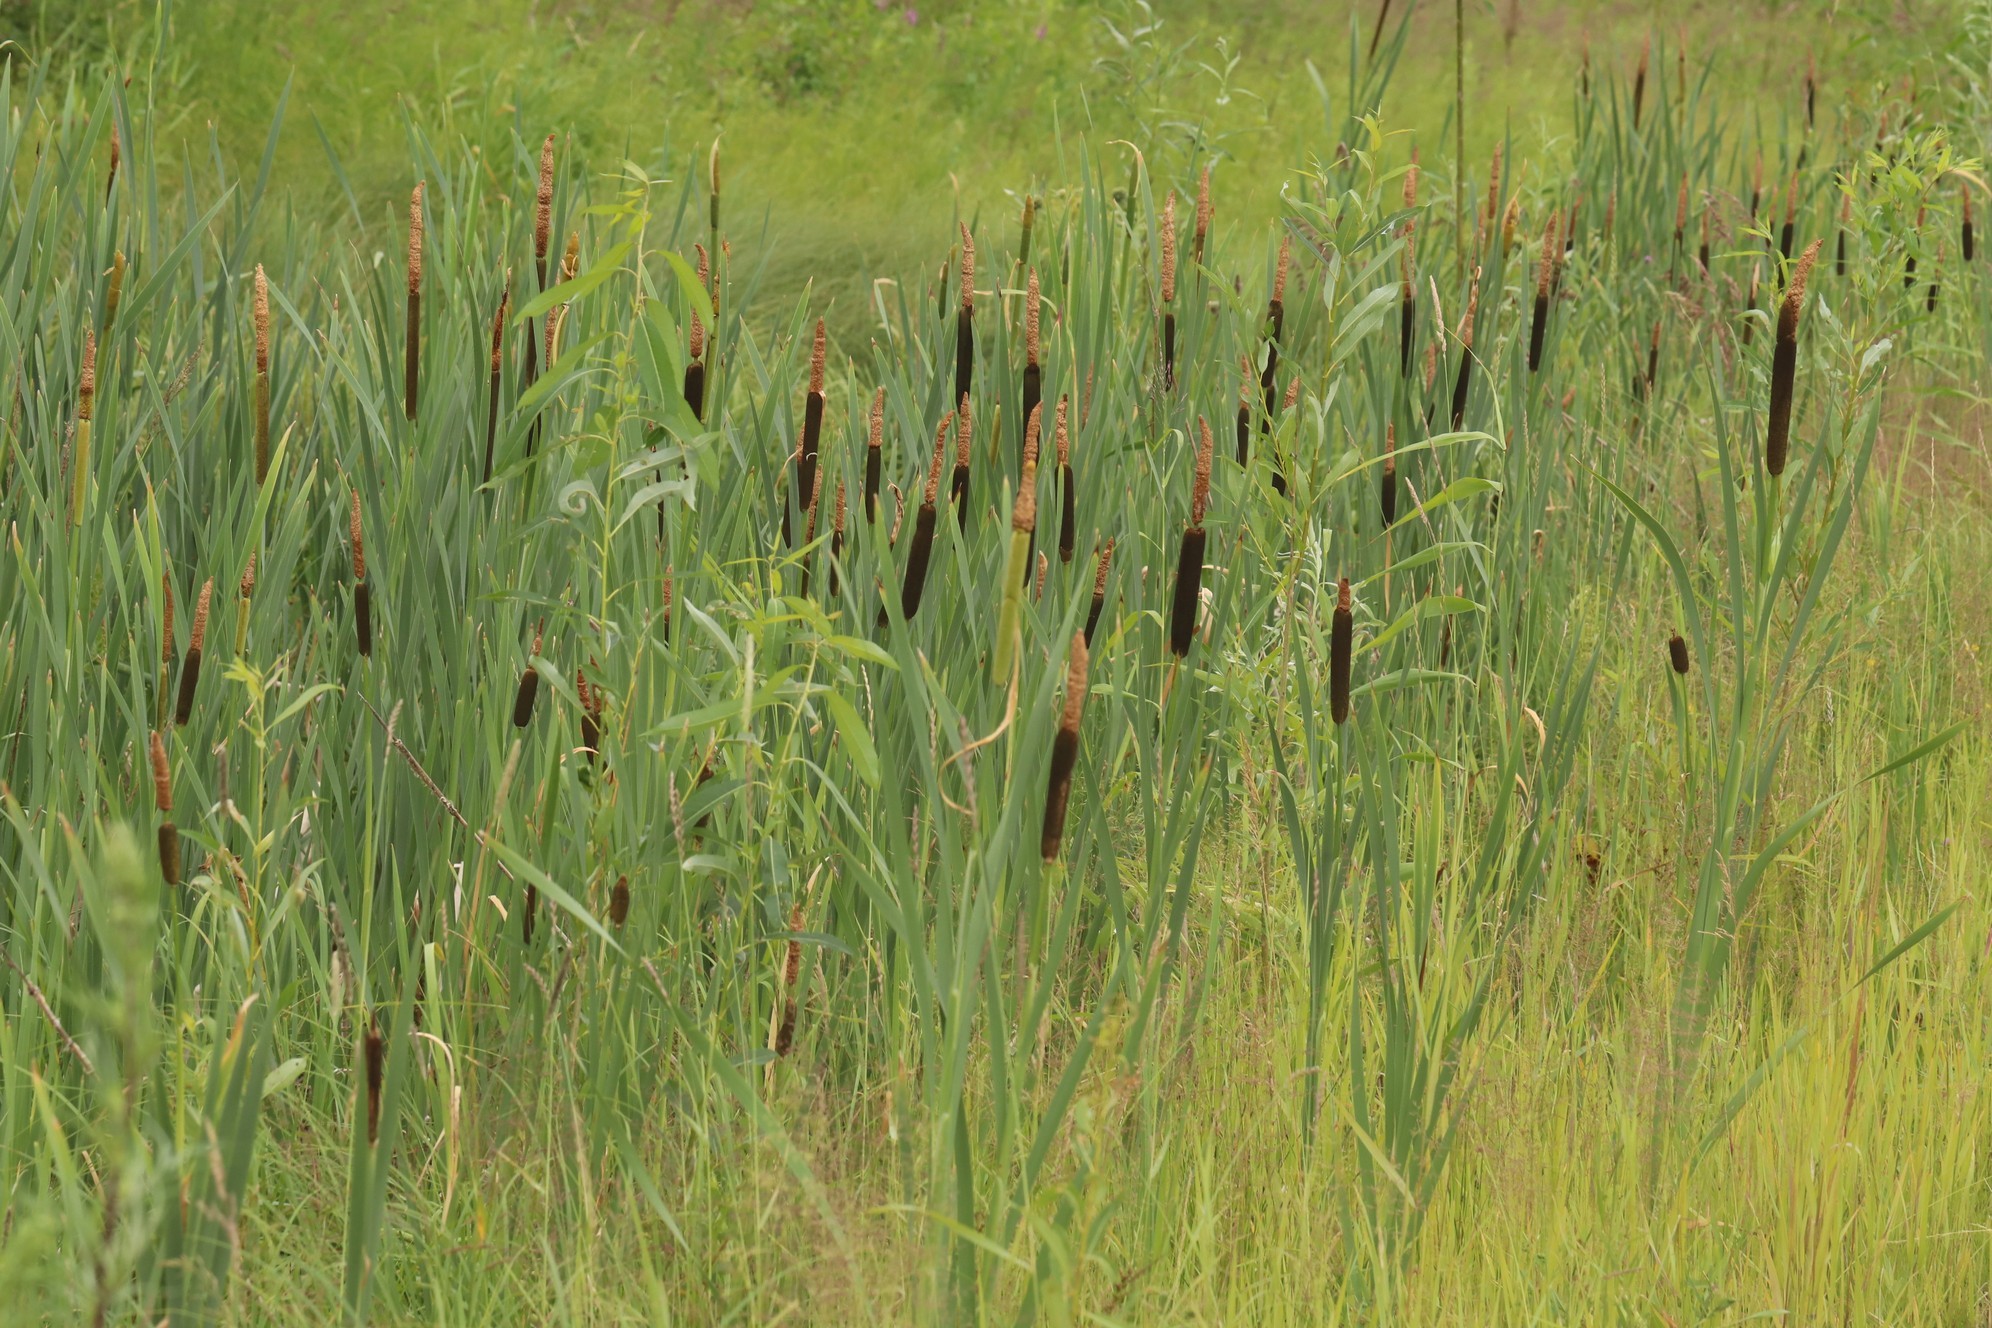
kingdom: Plantae
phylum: Tracheophyta
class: Liliopsida
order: Poales
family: Typhaceae
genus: Typha
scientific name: Typha latifolia
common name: Broadleaf cattail
